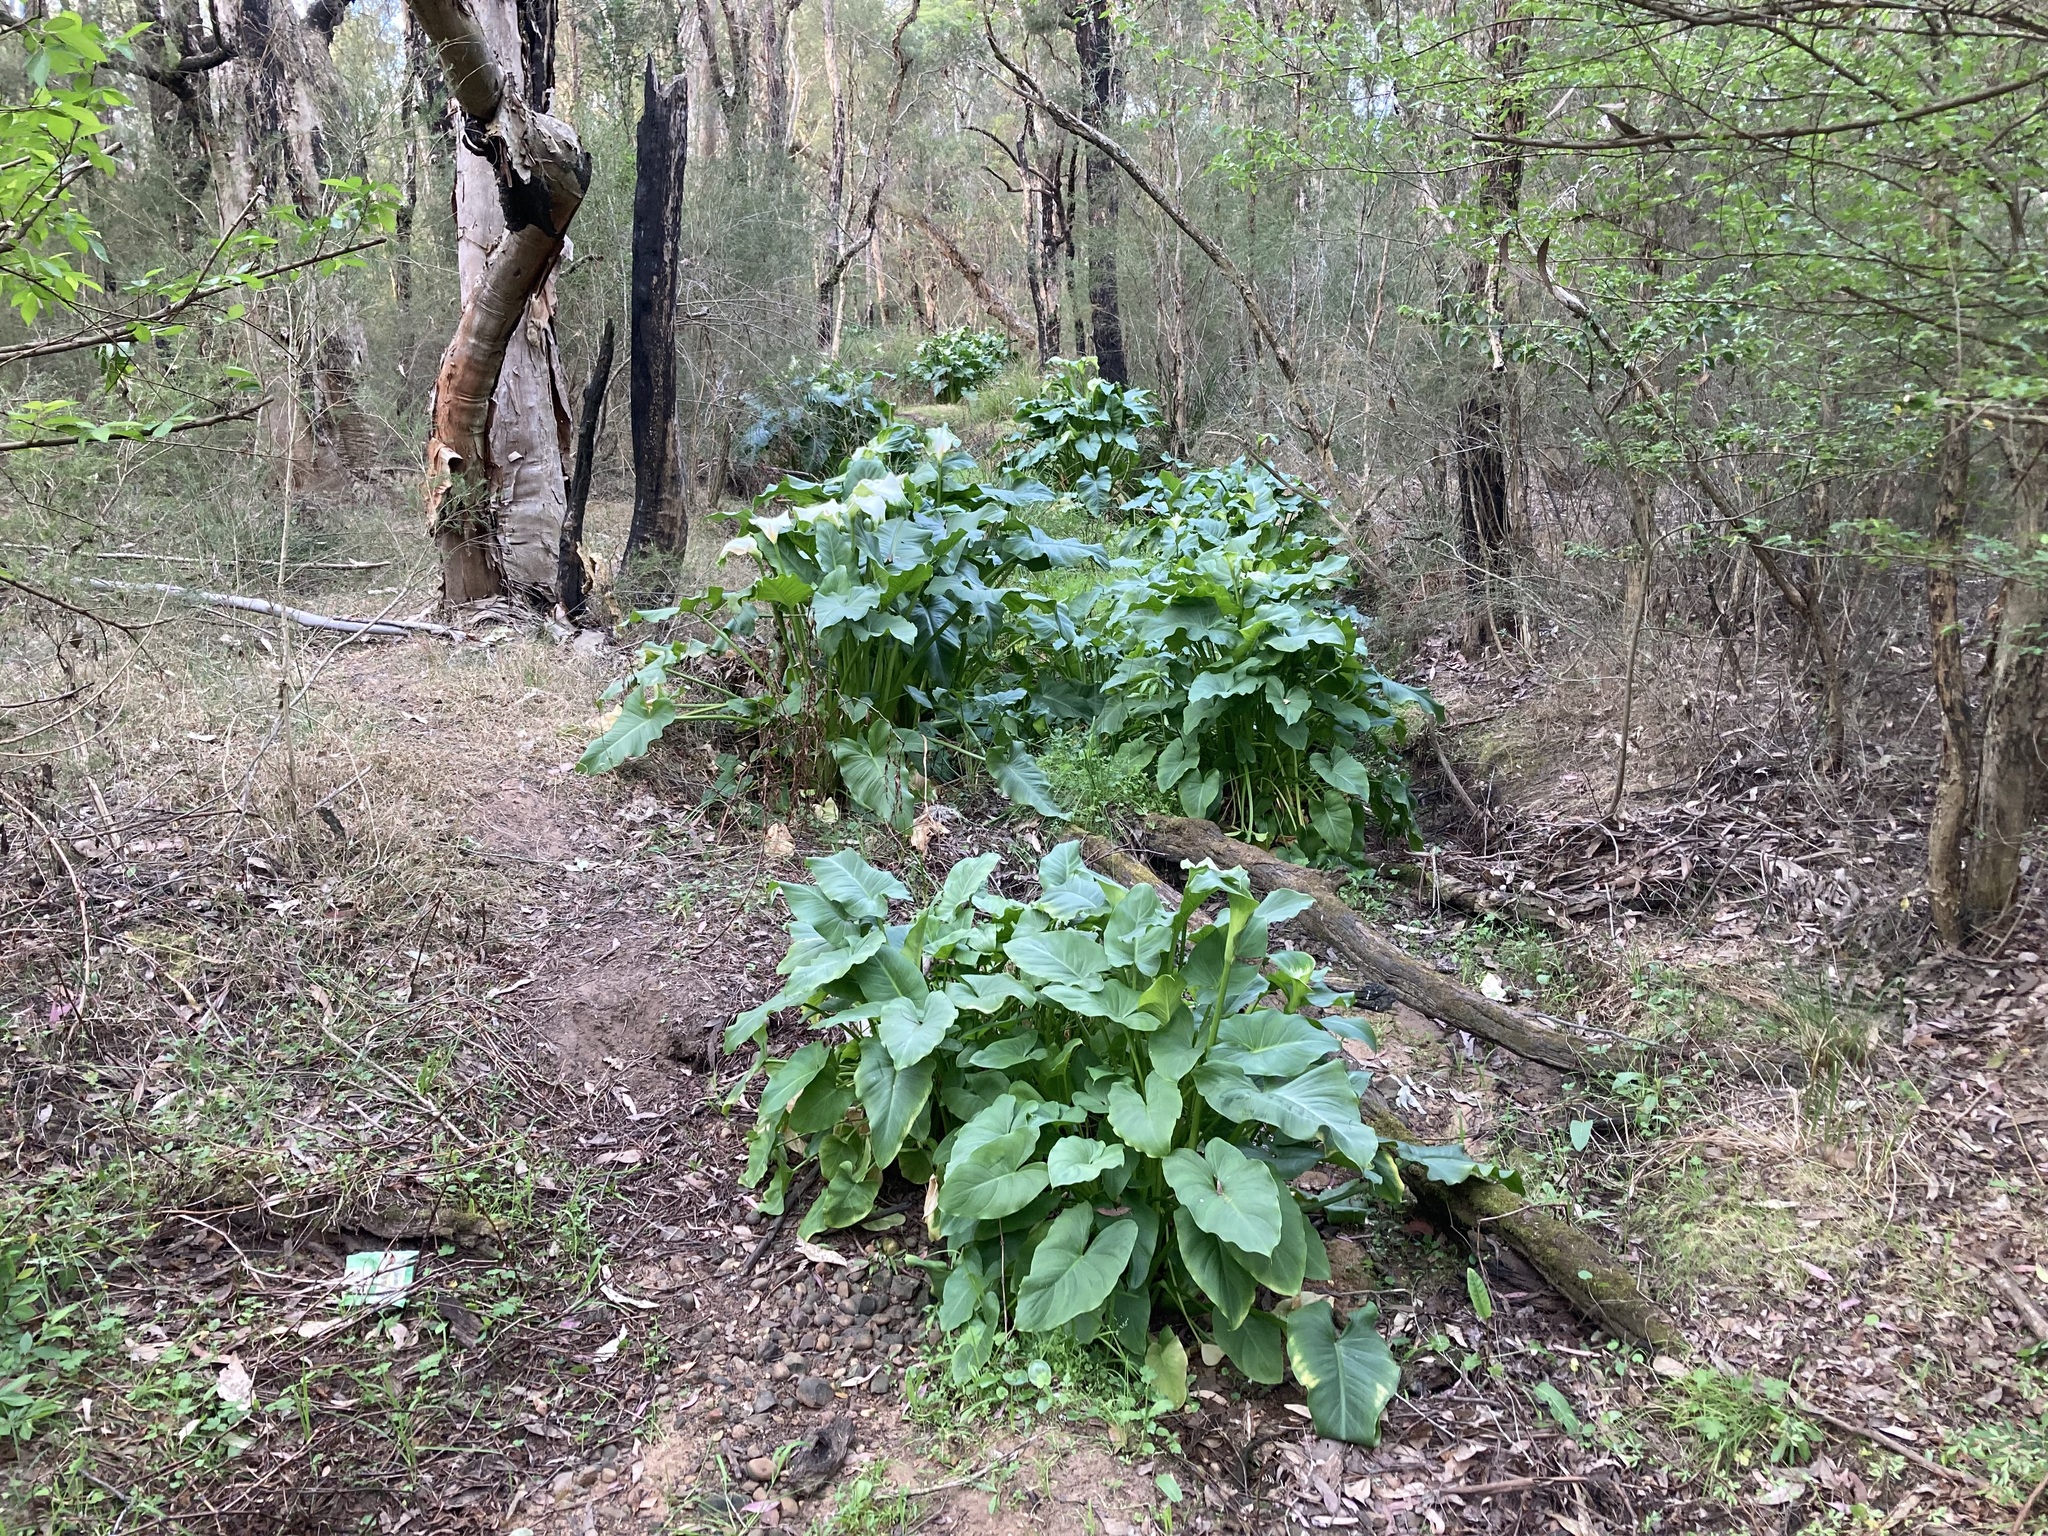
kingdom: Plantae
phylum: Tracheophyta
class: Liliopsida
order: Alismatales
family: Araceae
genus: Zantedeschia
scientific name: Zantedeschia aethiopica
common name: Altar-lily
